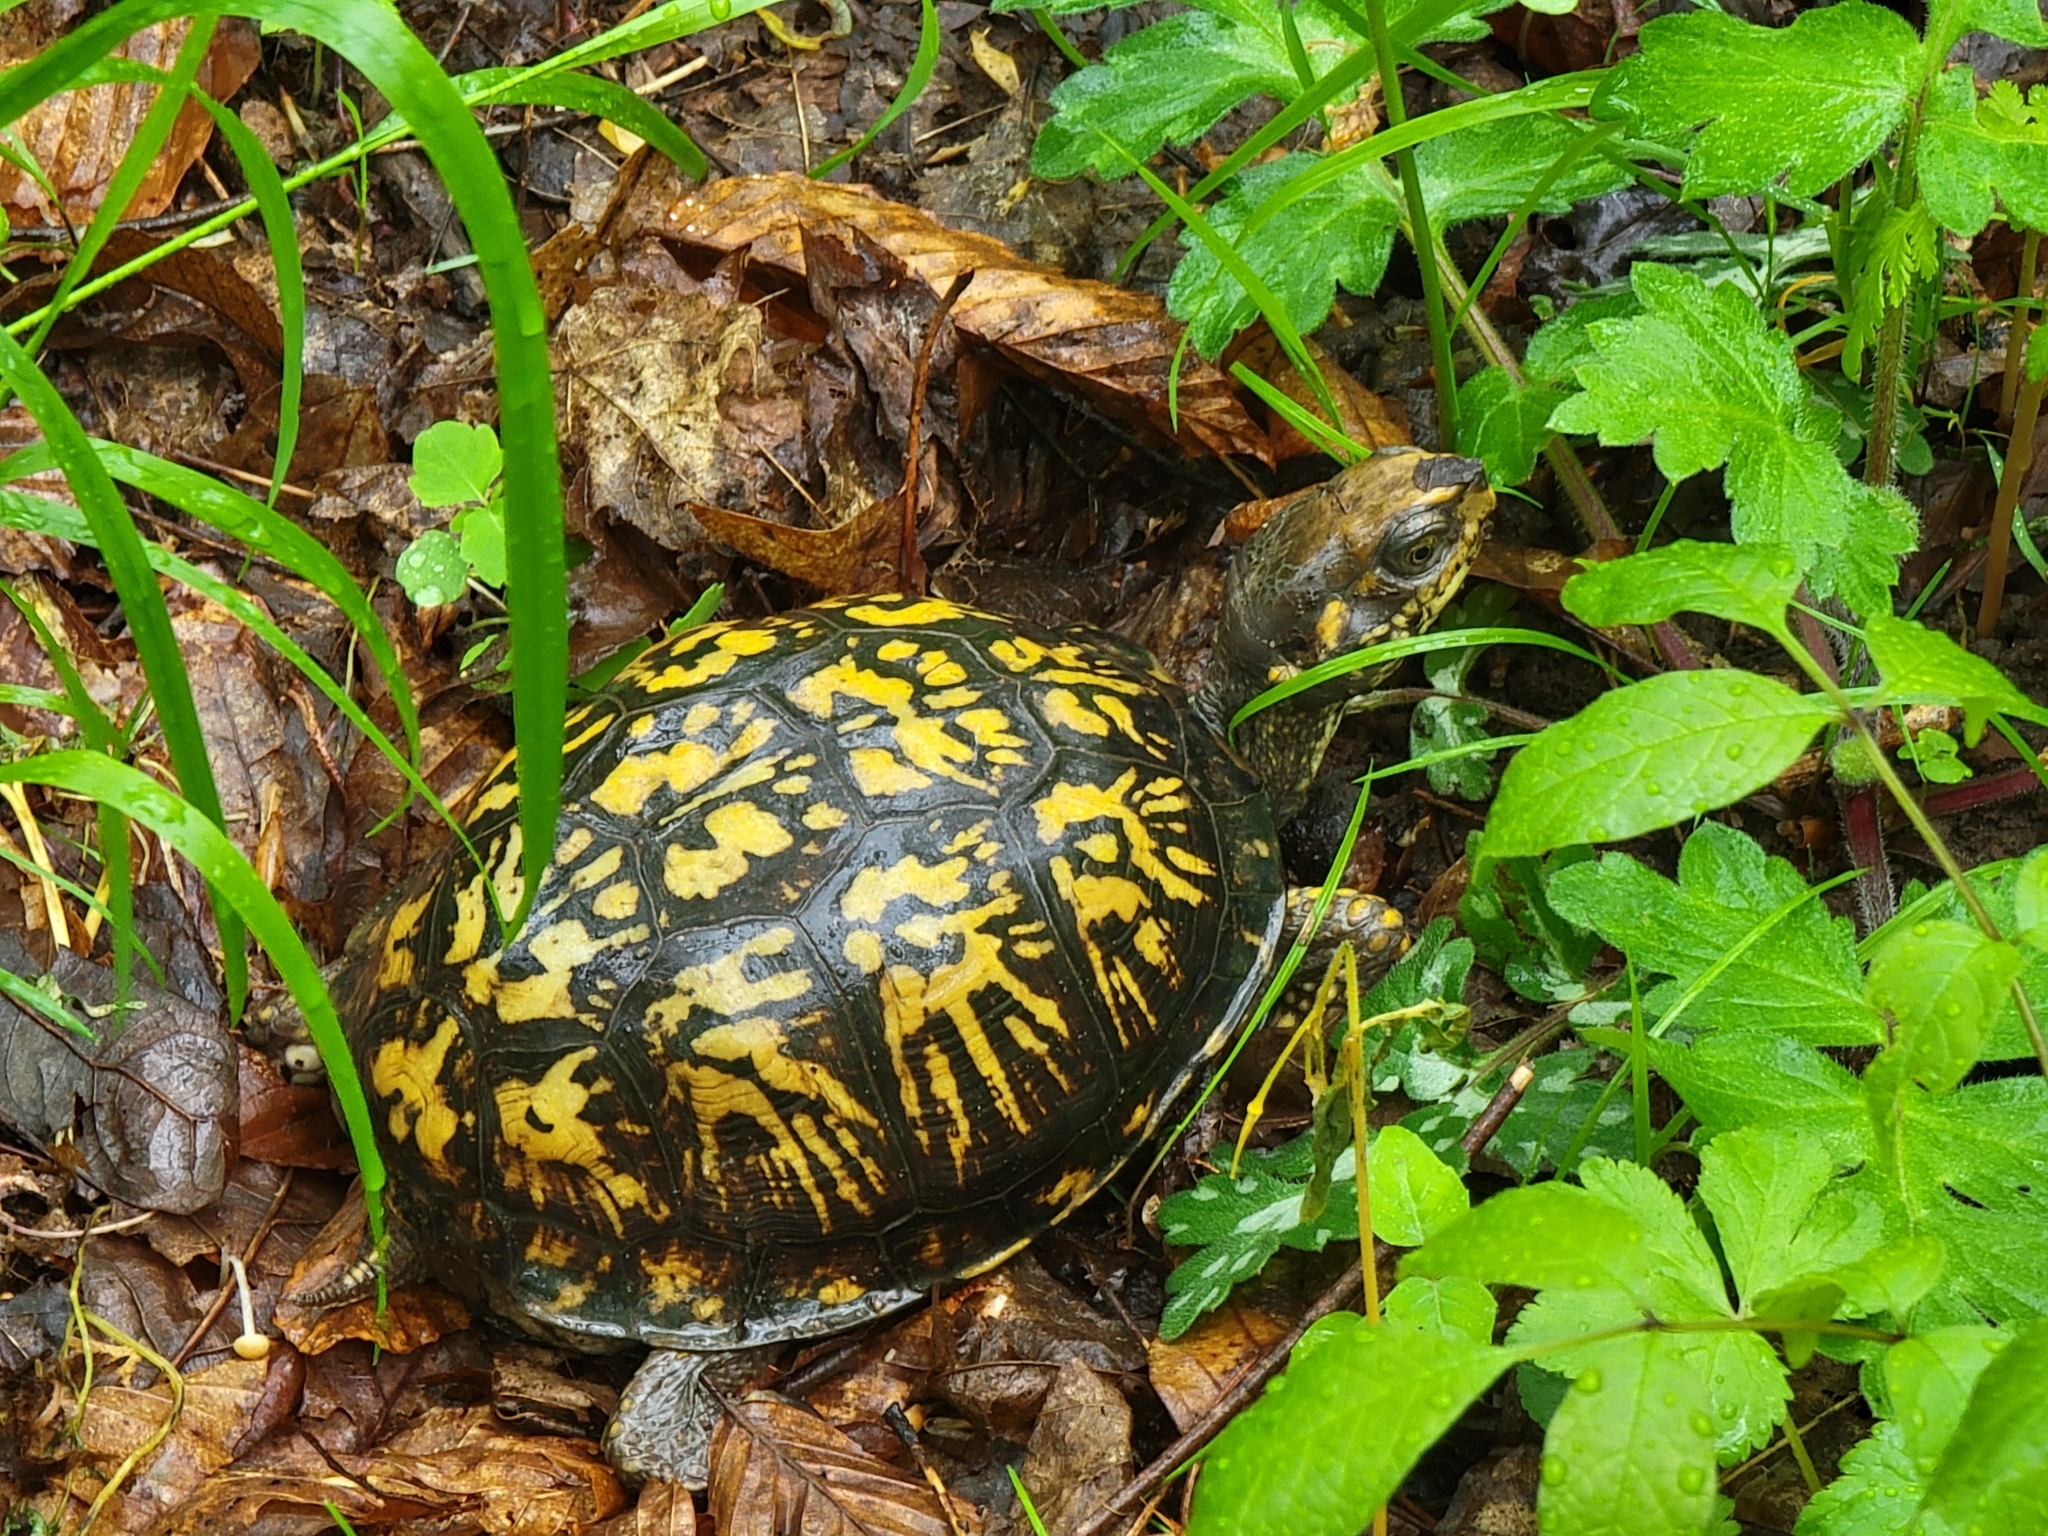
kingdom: Animalia
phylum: Chordata
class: Testudines
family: Emydidae
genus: Terrapene
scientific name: Terrapene carolina
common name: Common box turtle
